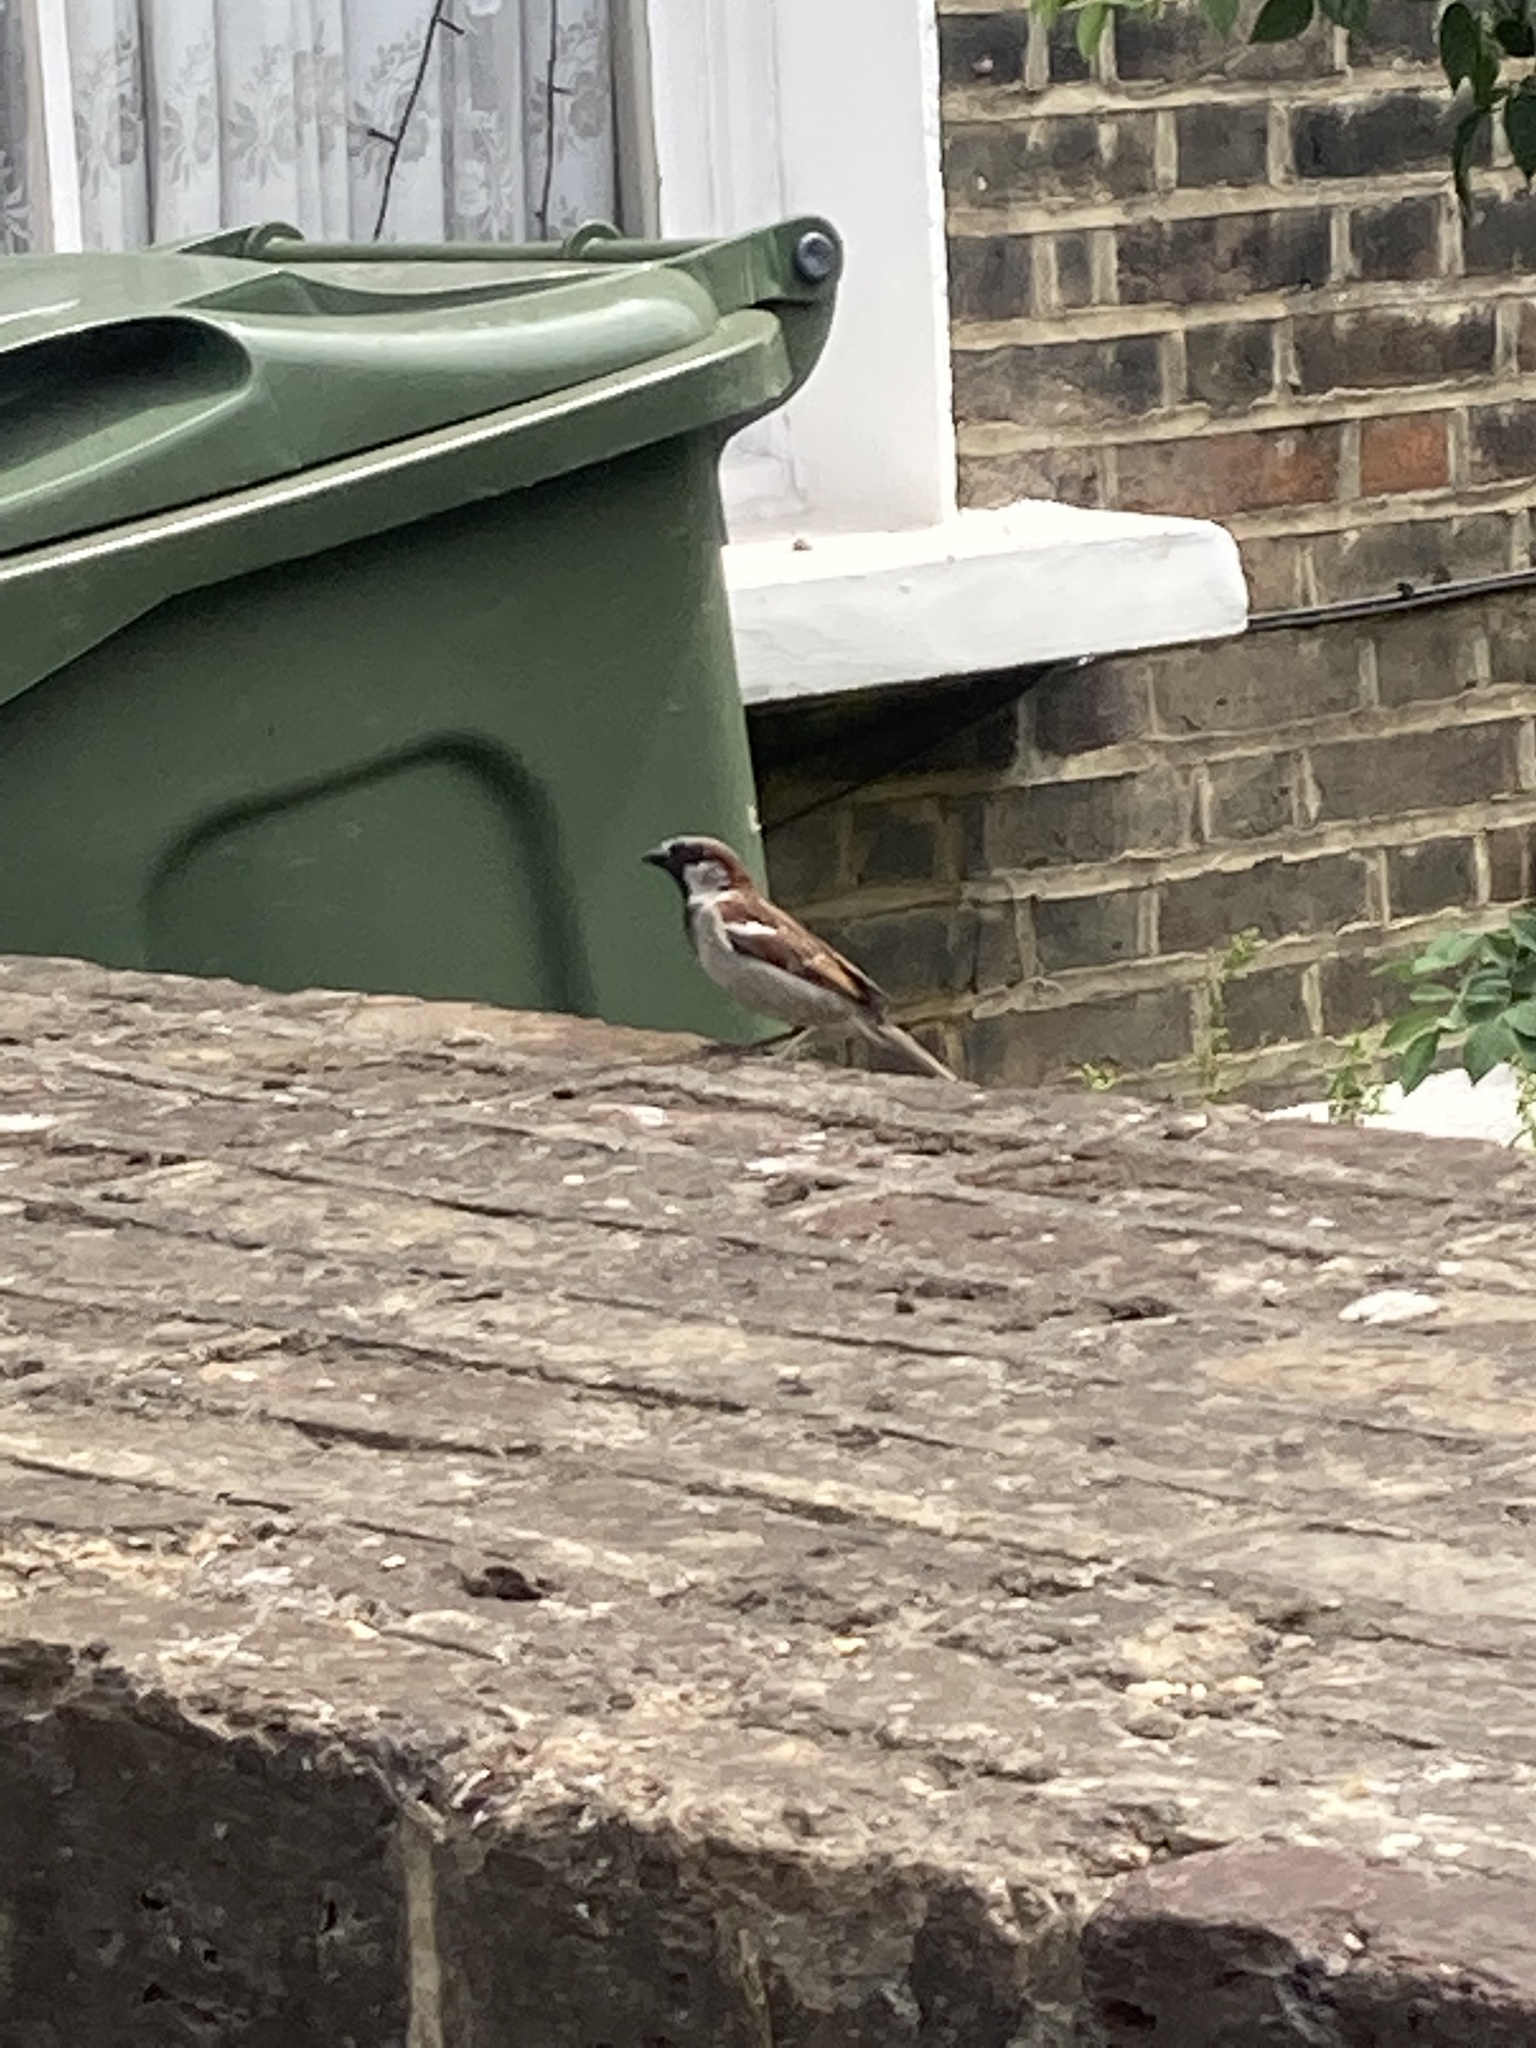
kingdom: Animalia
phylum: Chordata
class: Aves
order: Passeriformes
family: Passeridae
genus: Passer
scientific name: Passer domesticus
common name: House sparrow
